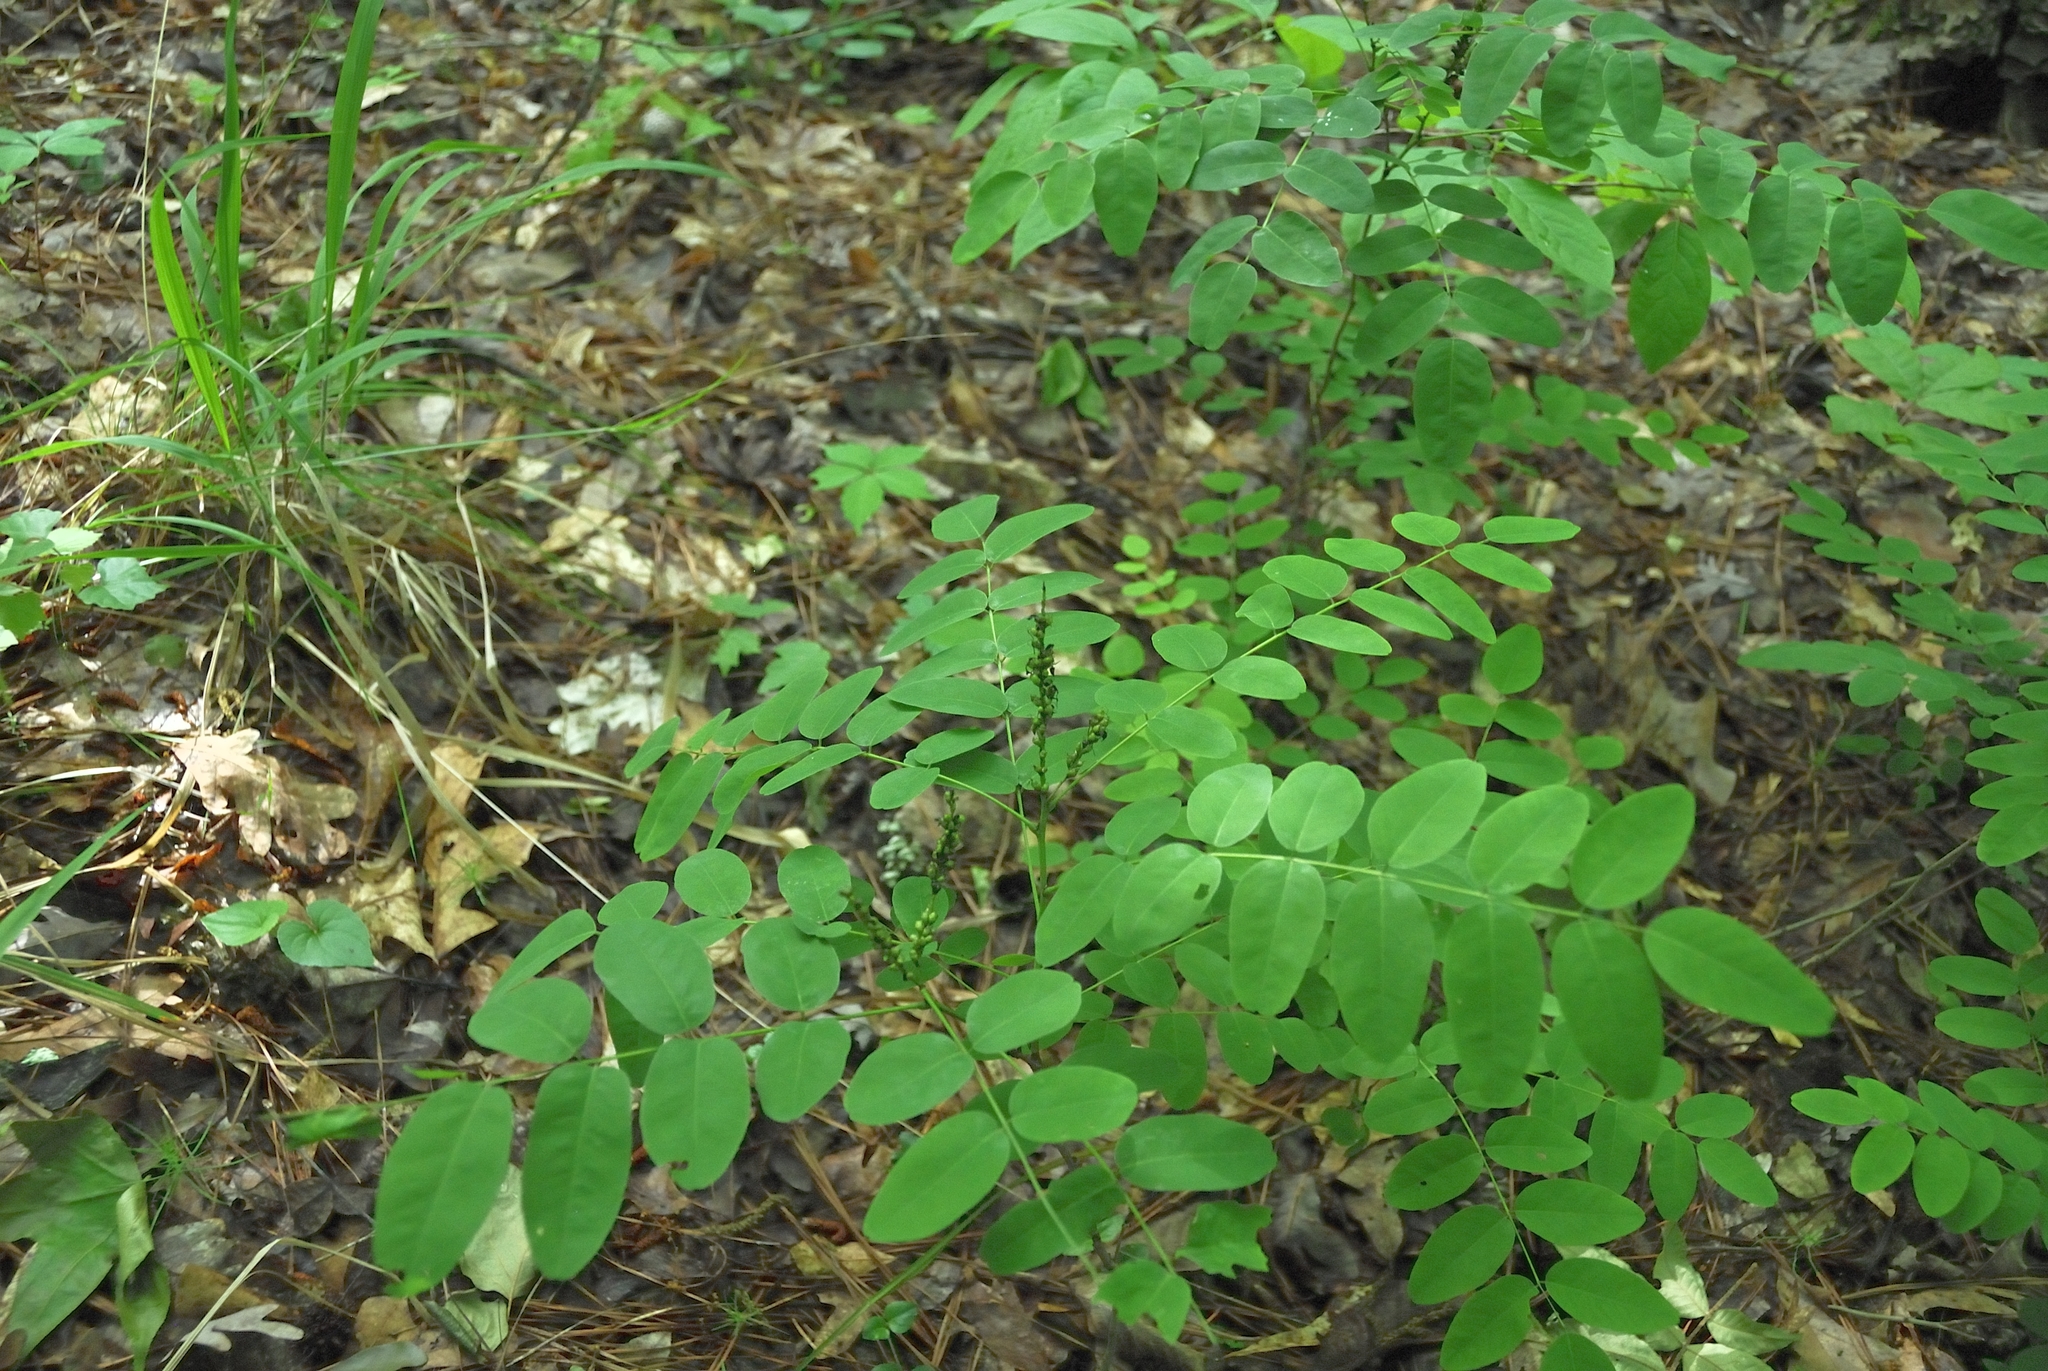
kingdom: Plantae
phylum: Tracheophyta
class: Magnoliopsida
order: Fabales
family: Fabaceae
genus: Amorpha
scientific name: Amorpha fruticosa
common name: False indigo
